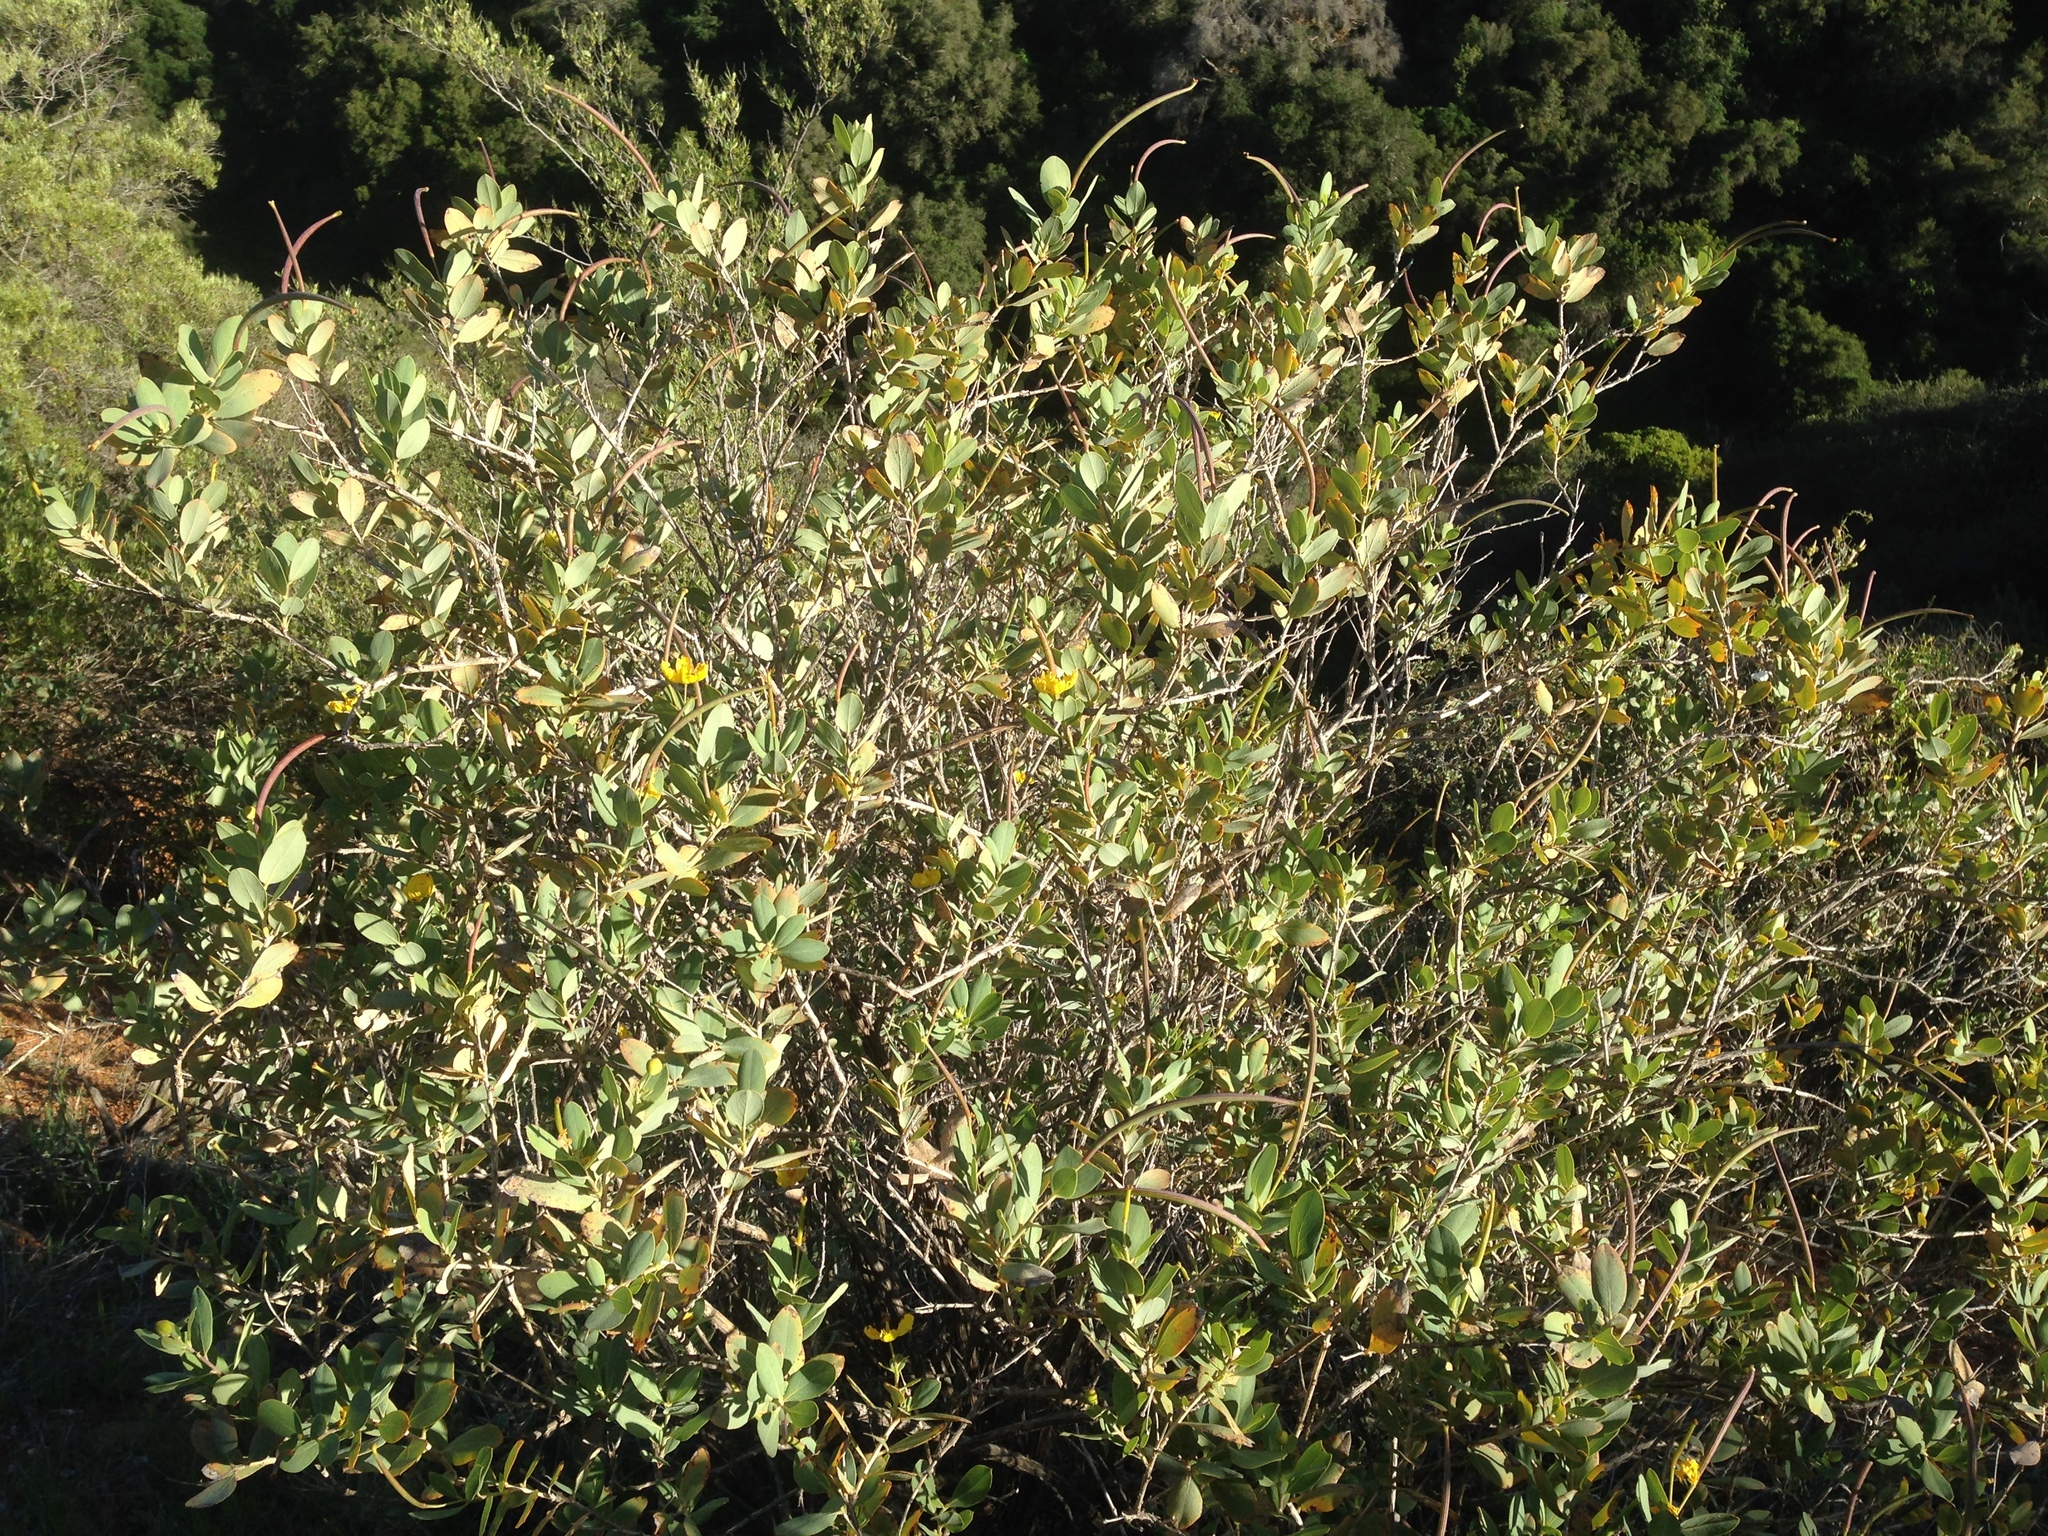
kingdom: Plantae
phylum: Tracheophyta
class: Magnoliopsida
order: Ranunculales
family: Papaveraceae
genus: Dendromecon
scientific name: Dendromecon harfordii
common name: Island tree-poppy
